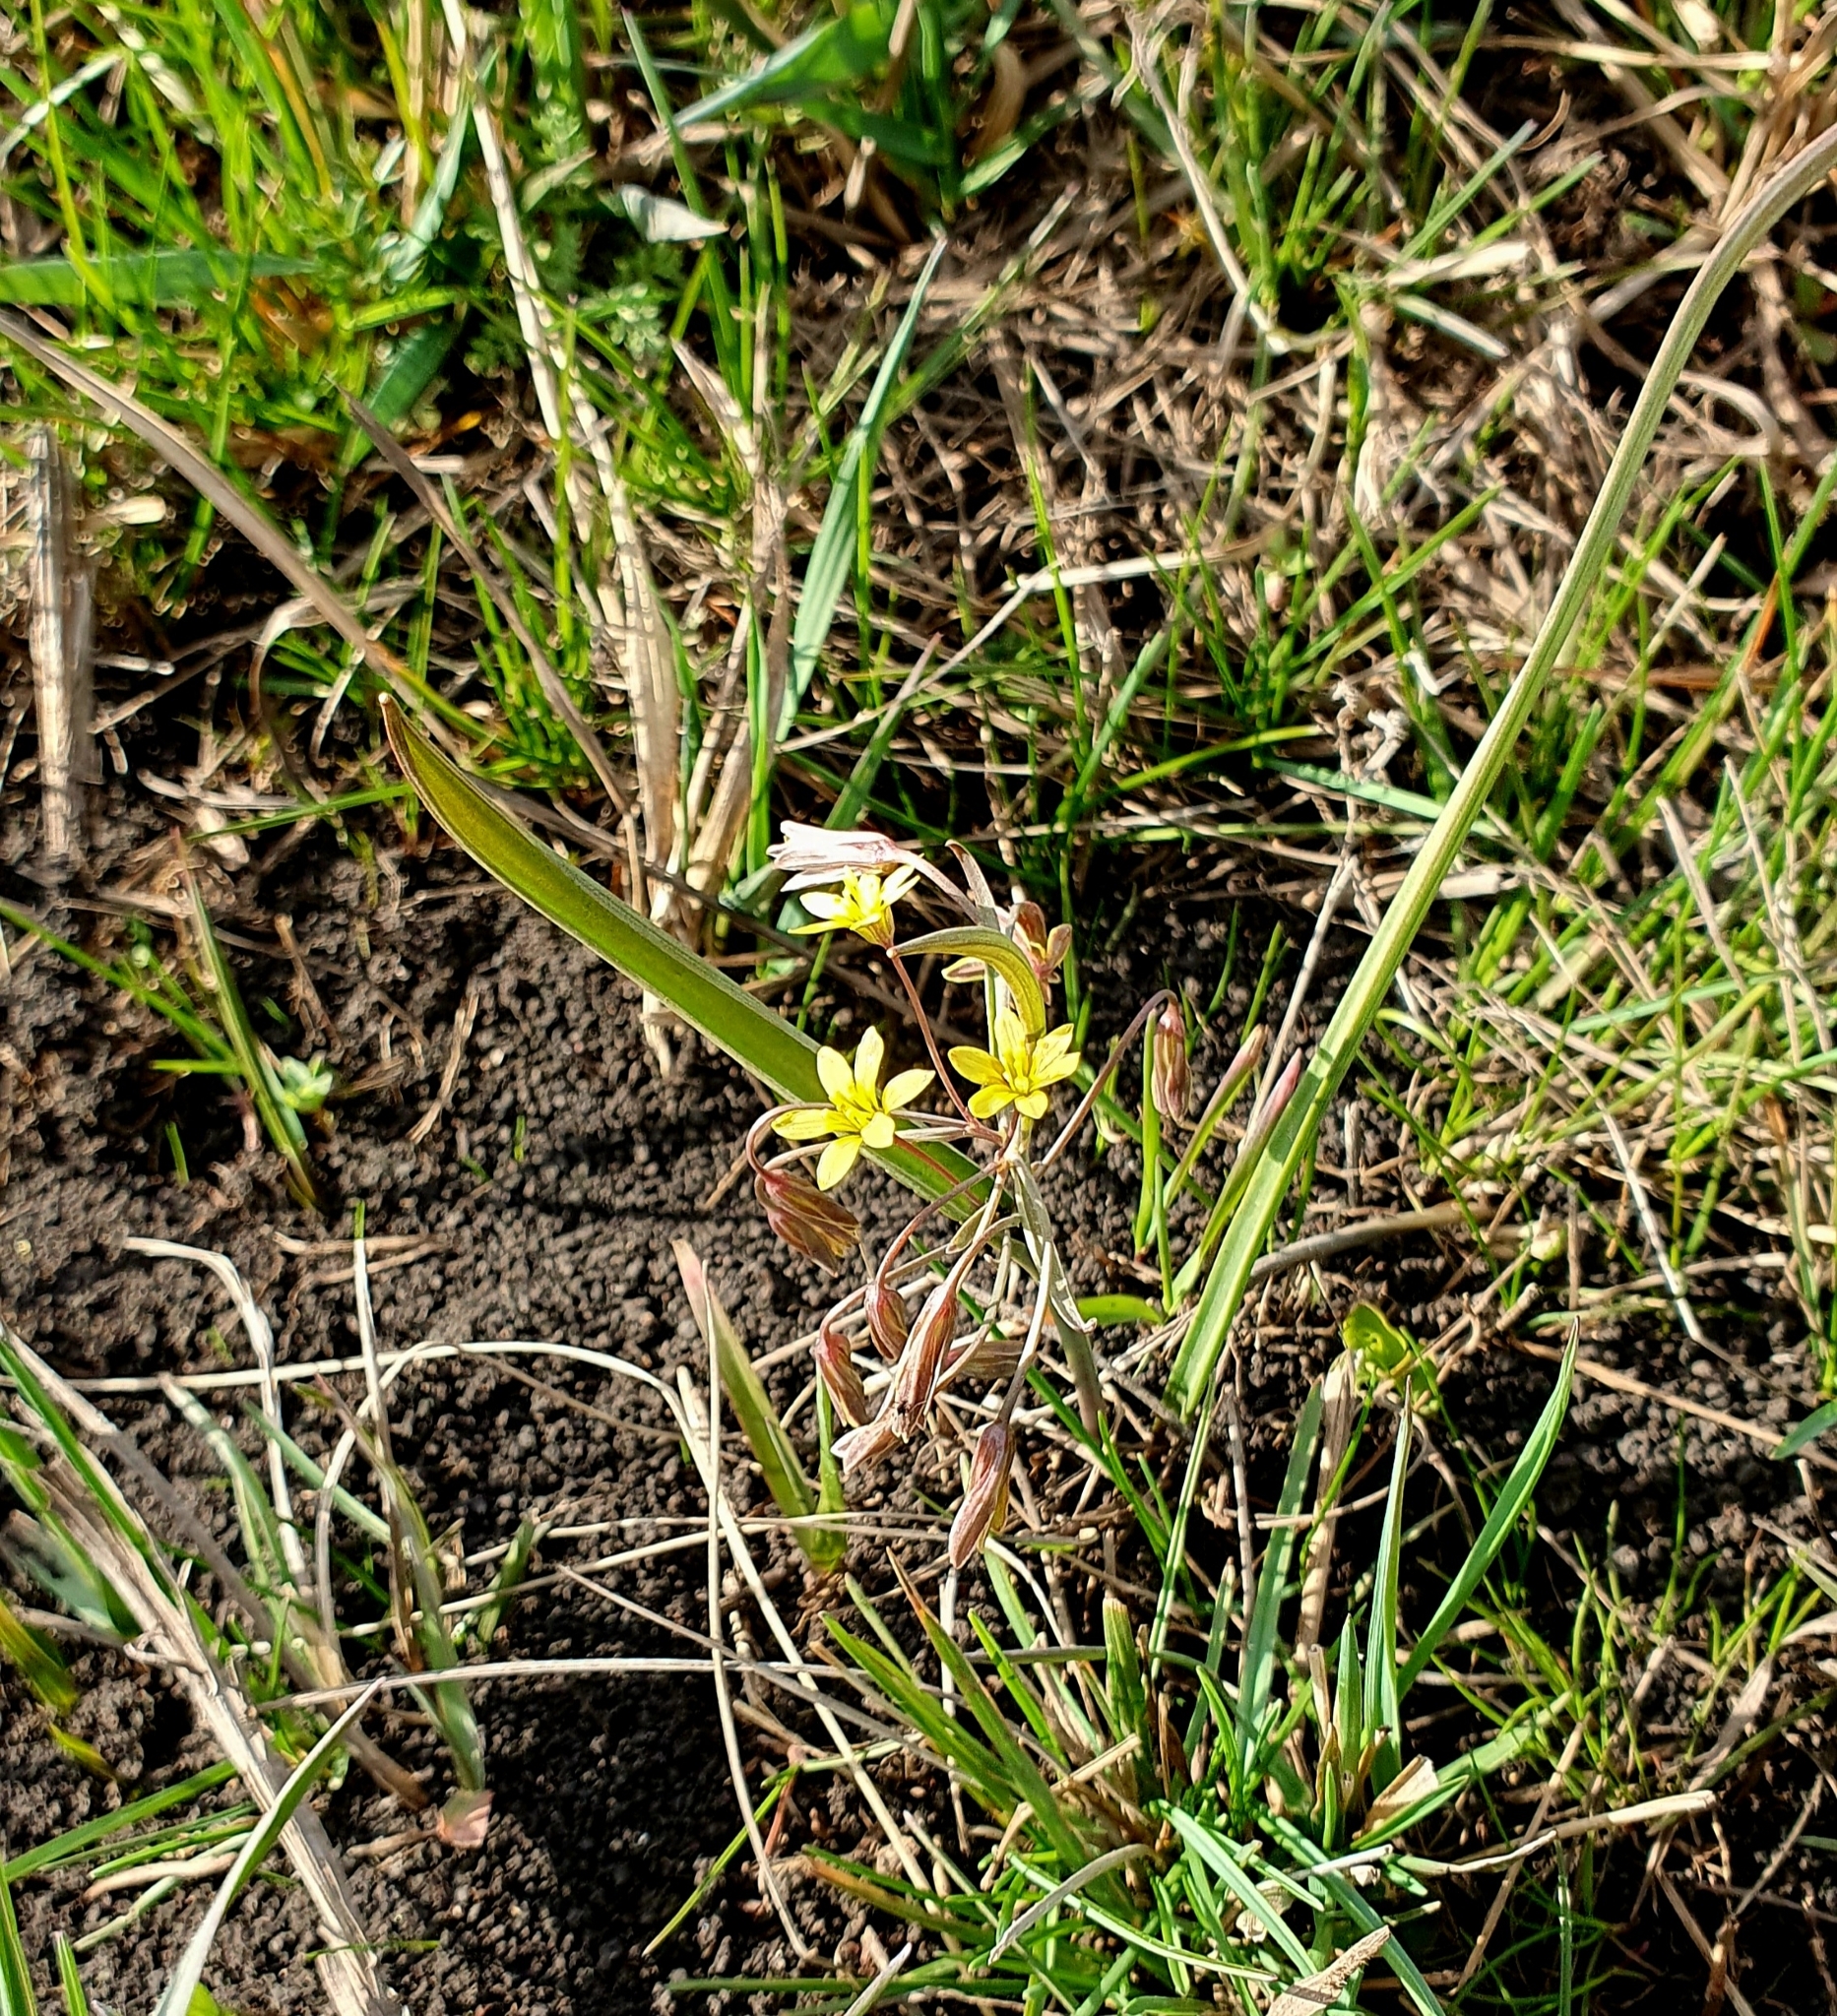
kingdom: Plantae
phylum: Tracheophyta
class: Liliopsida
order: Liliales
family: Liliaceae
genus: Gagea
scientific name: Gagea fragifera
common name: Lily
